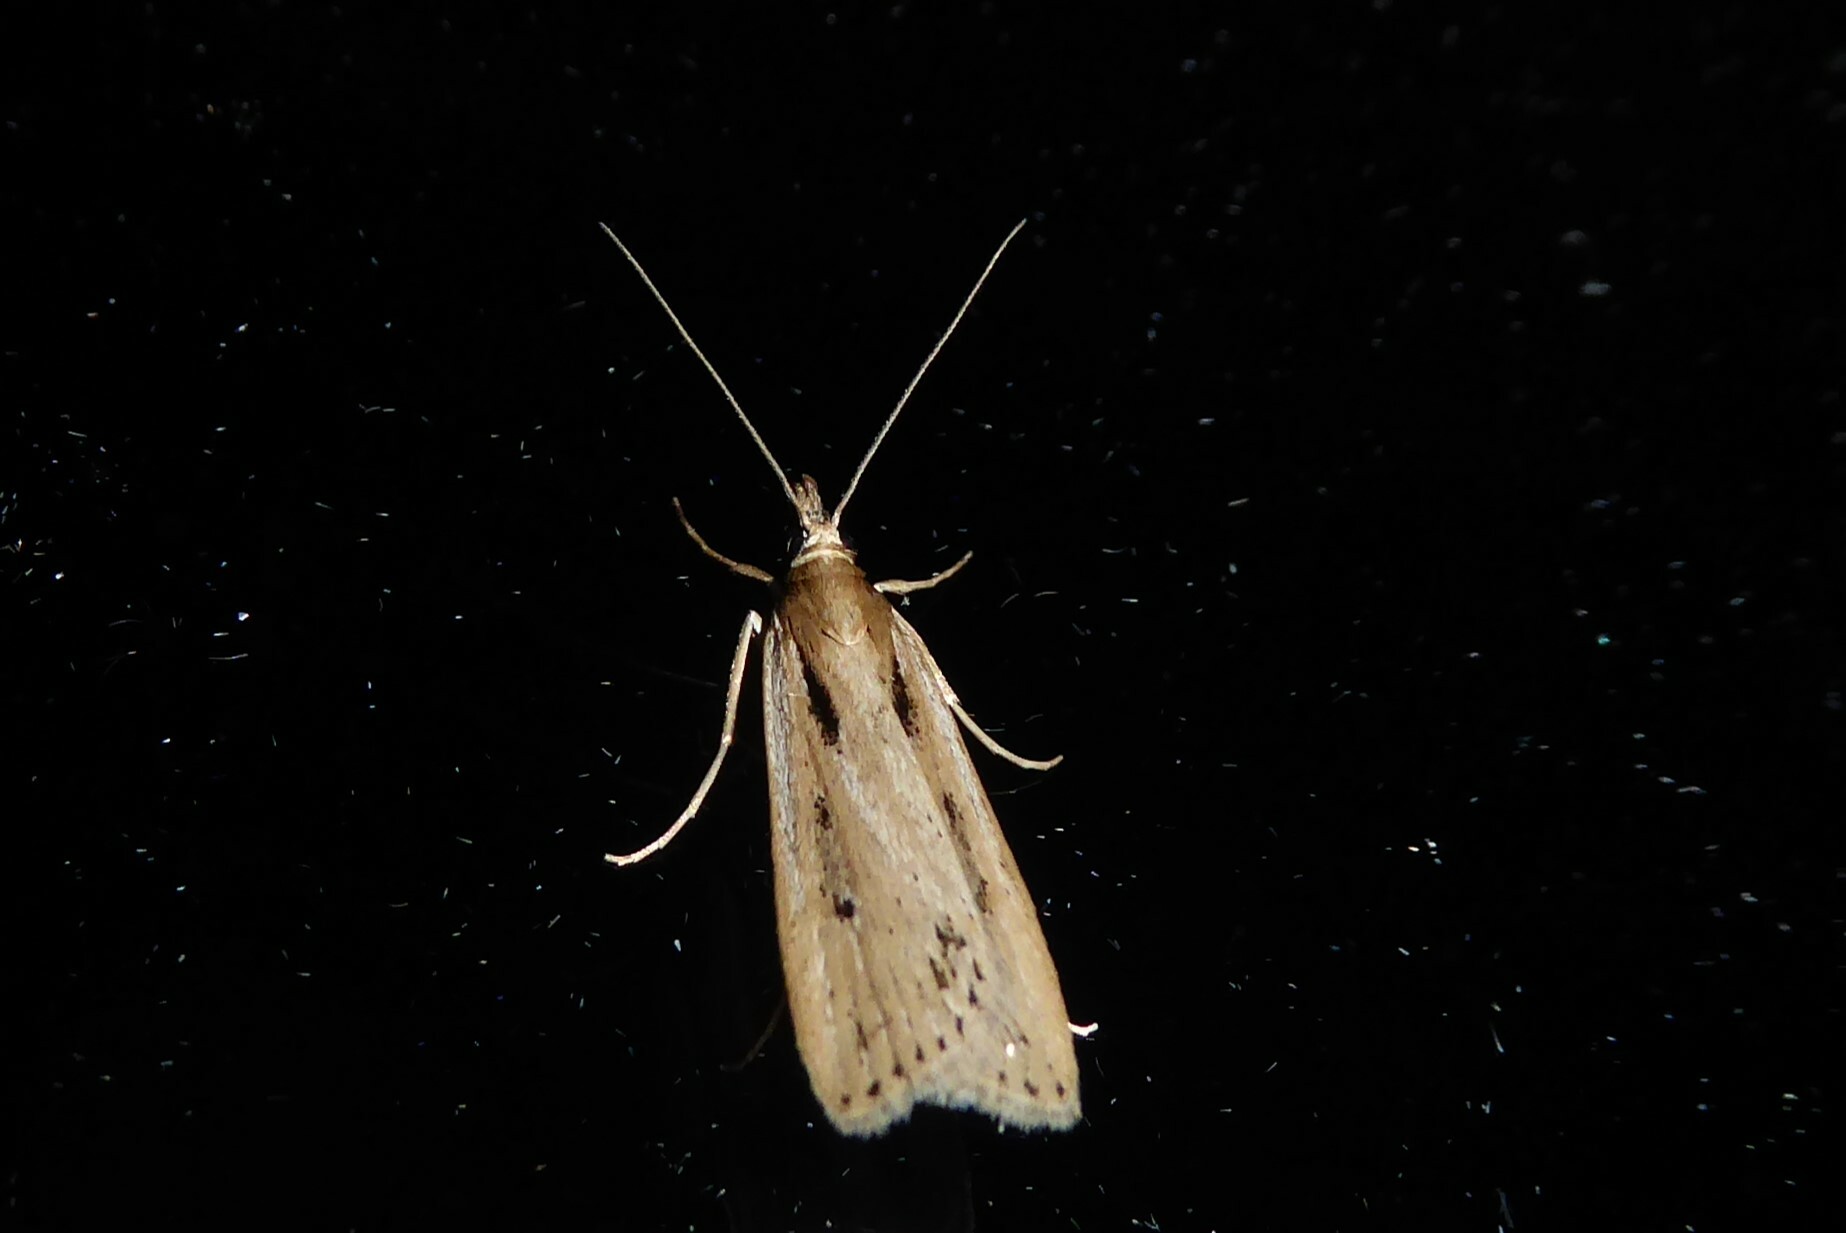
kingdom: Animalia
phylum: Arthropoda
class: Insecta
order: Lepidoptera
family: Crambidae
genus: Eudonia
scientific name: Eudonia sabulosella
